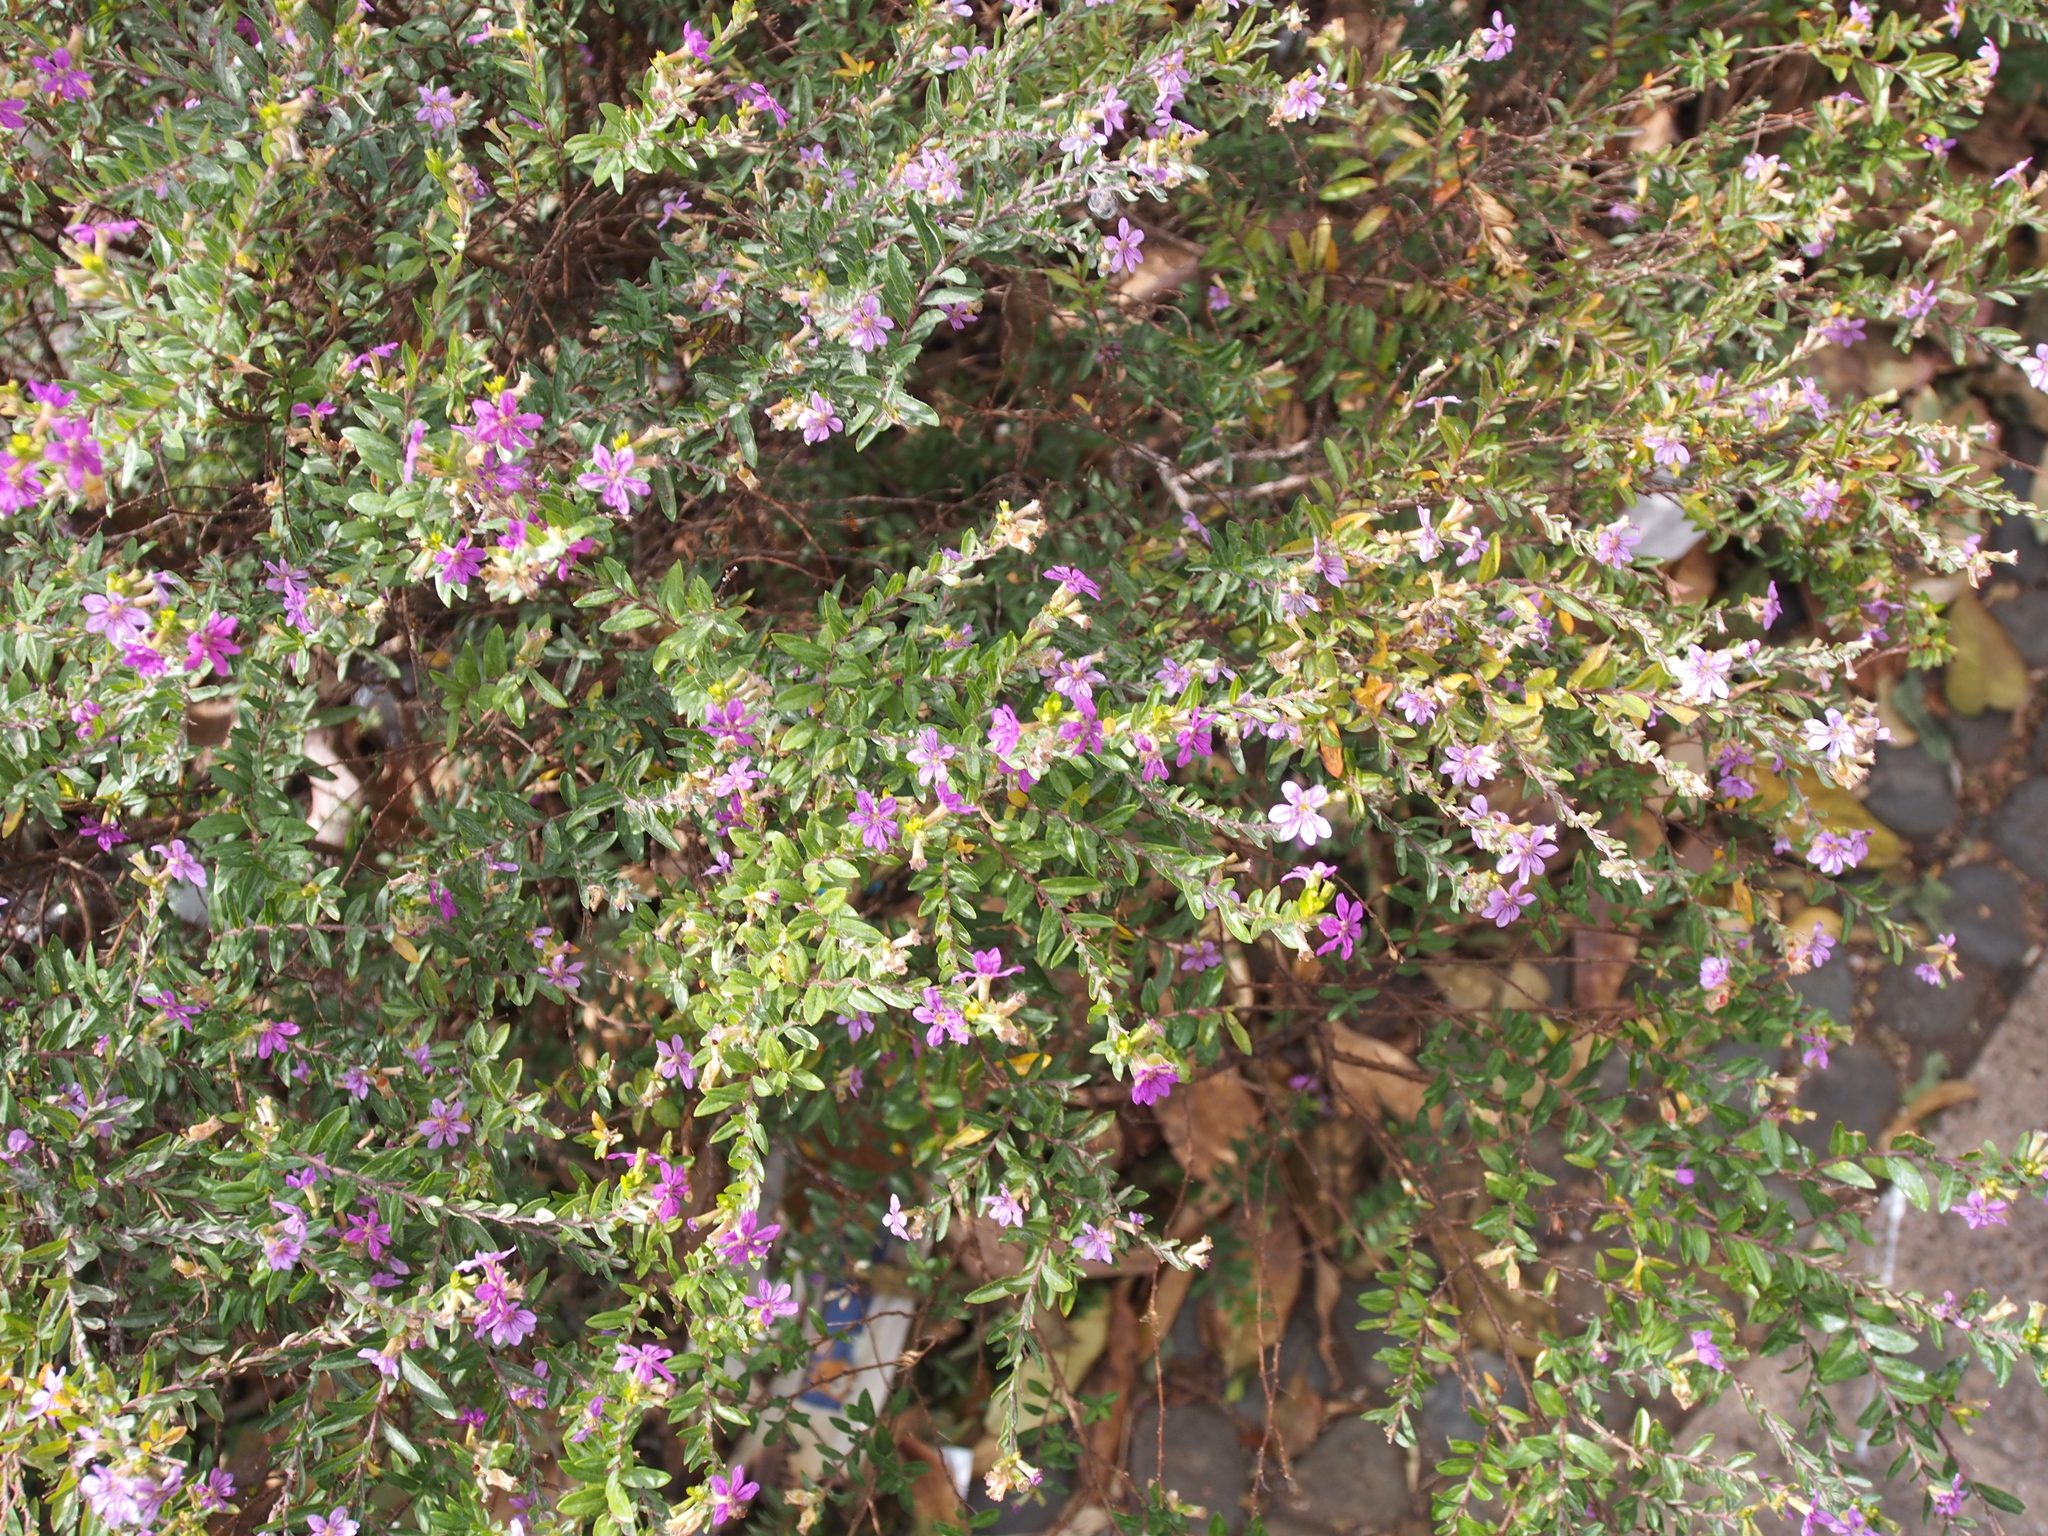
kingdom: Plantae
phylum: Tracheophyta
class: Magnoliopsida
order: Myrtales
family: Lythraceae
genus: Cuphea
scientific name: Cuphea hyssopifolia
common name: False heather
